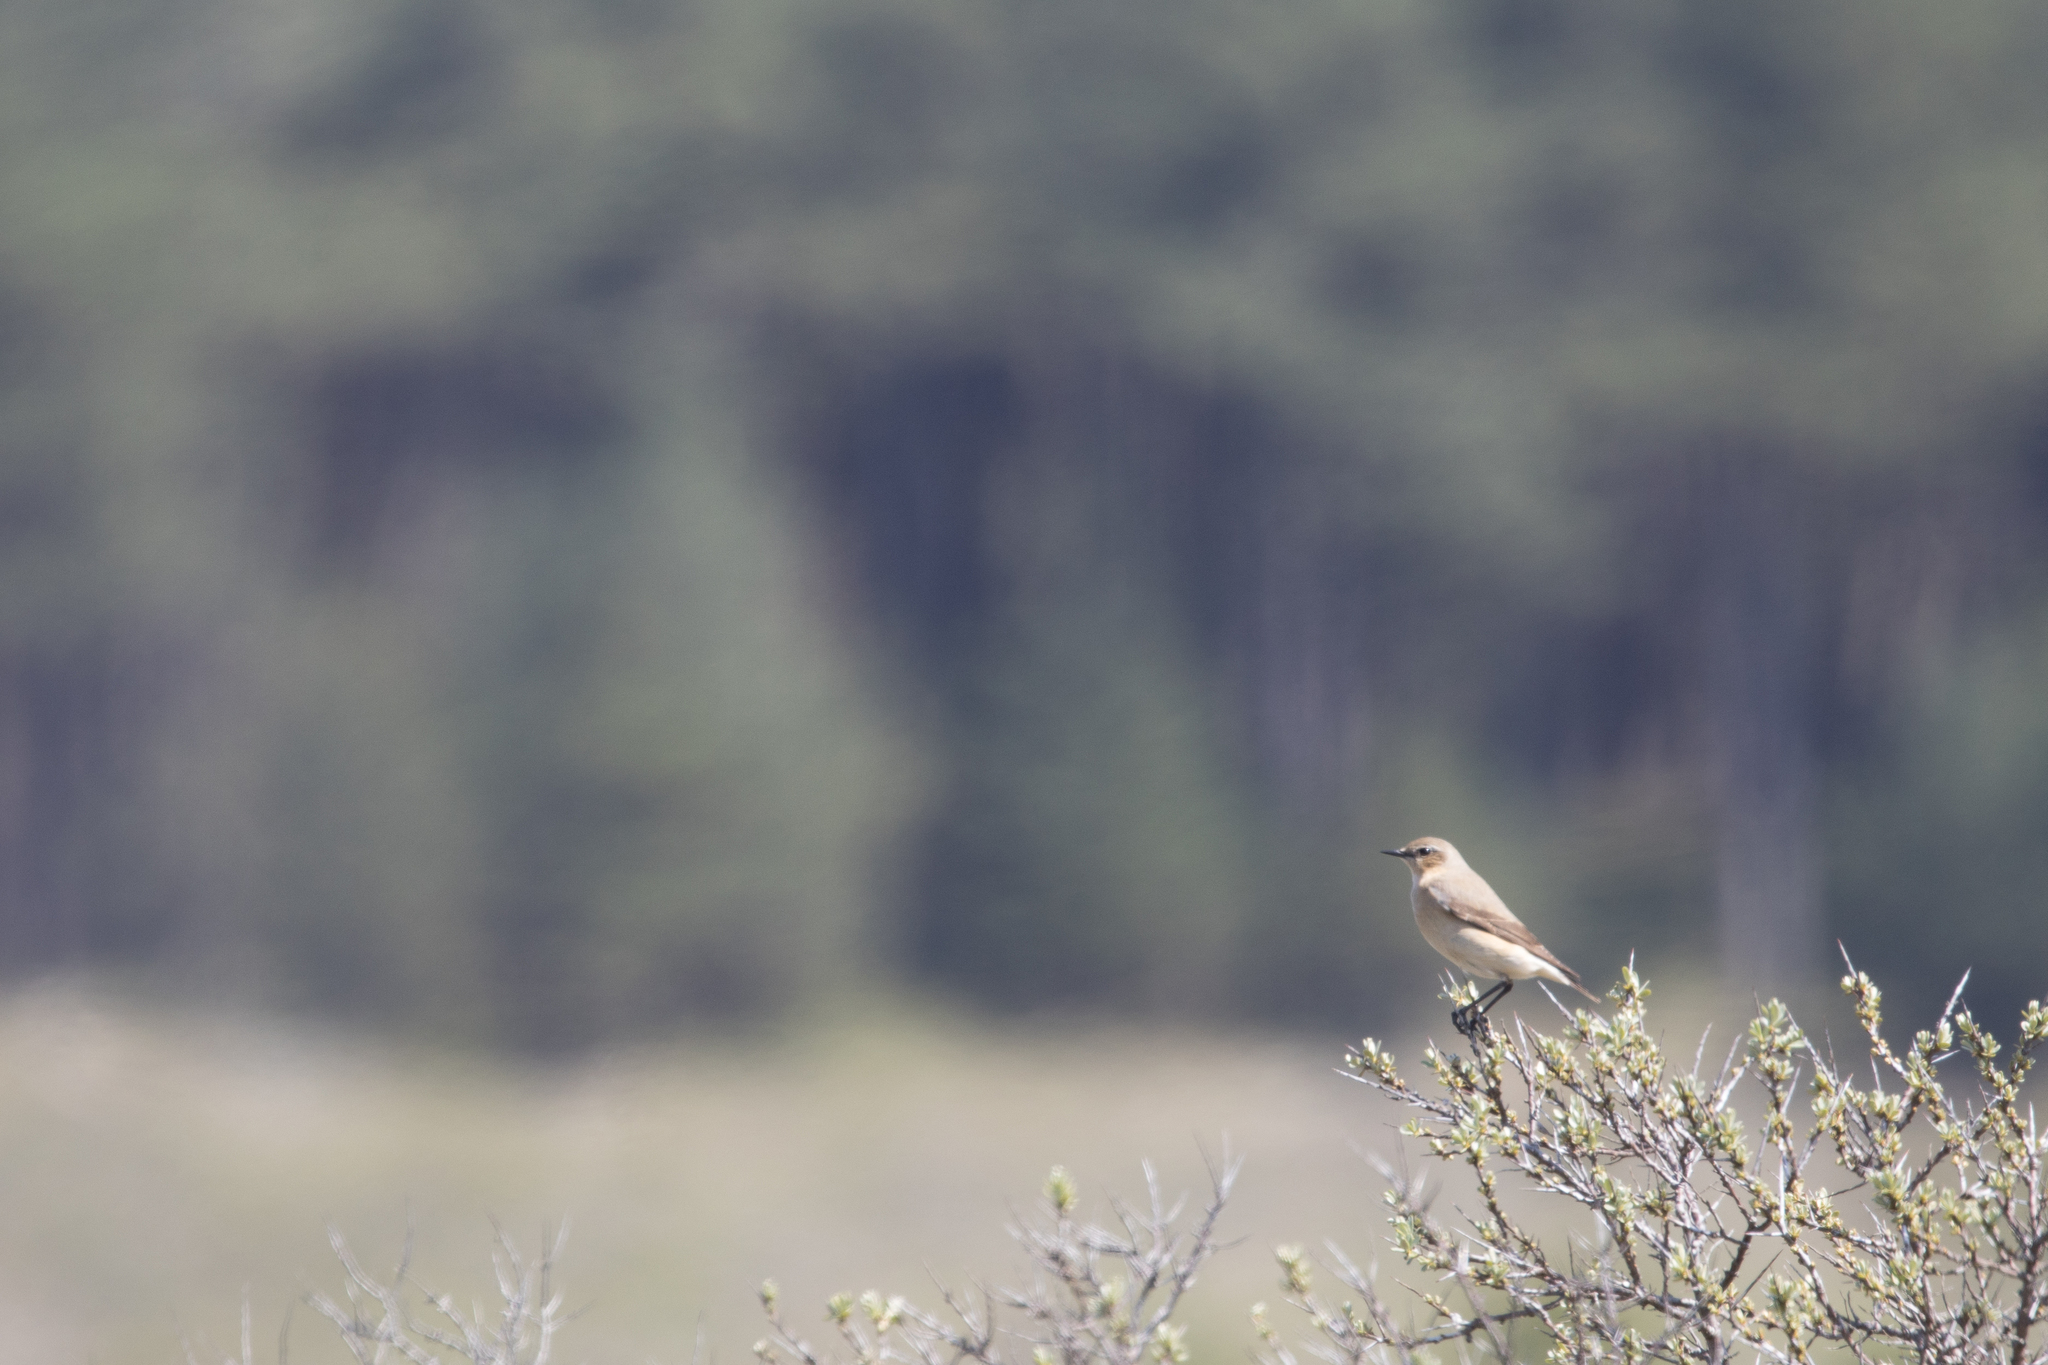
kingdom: Animalia
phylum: Chordata
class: Aves
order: Passeriformes
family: Muscicapidae
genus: Oenanthe
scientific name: Oenanthe oenanthe
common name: Northern wheatear
